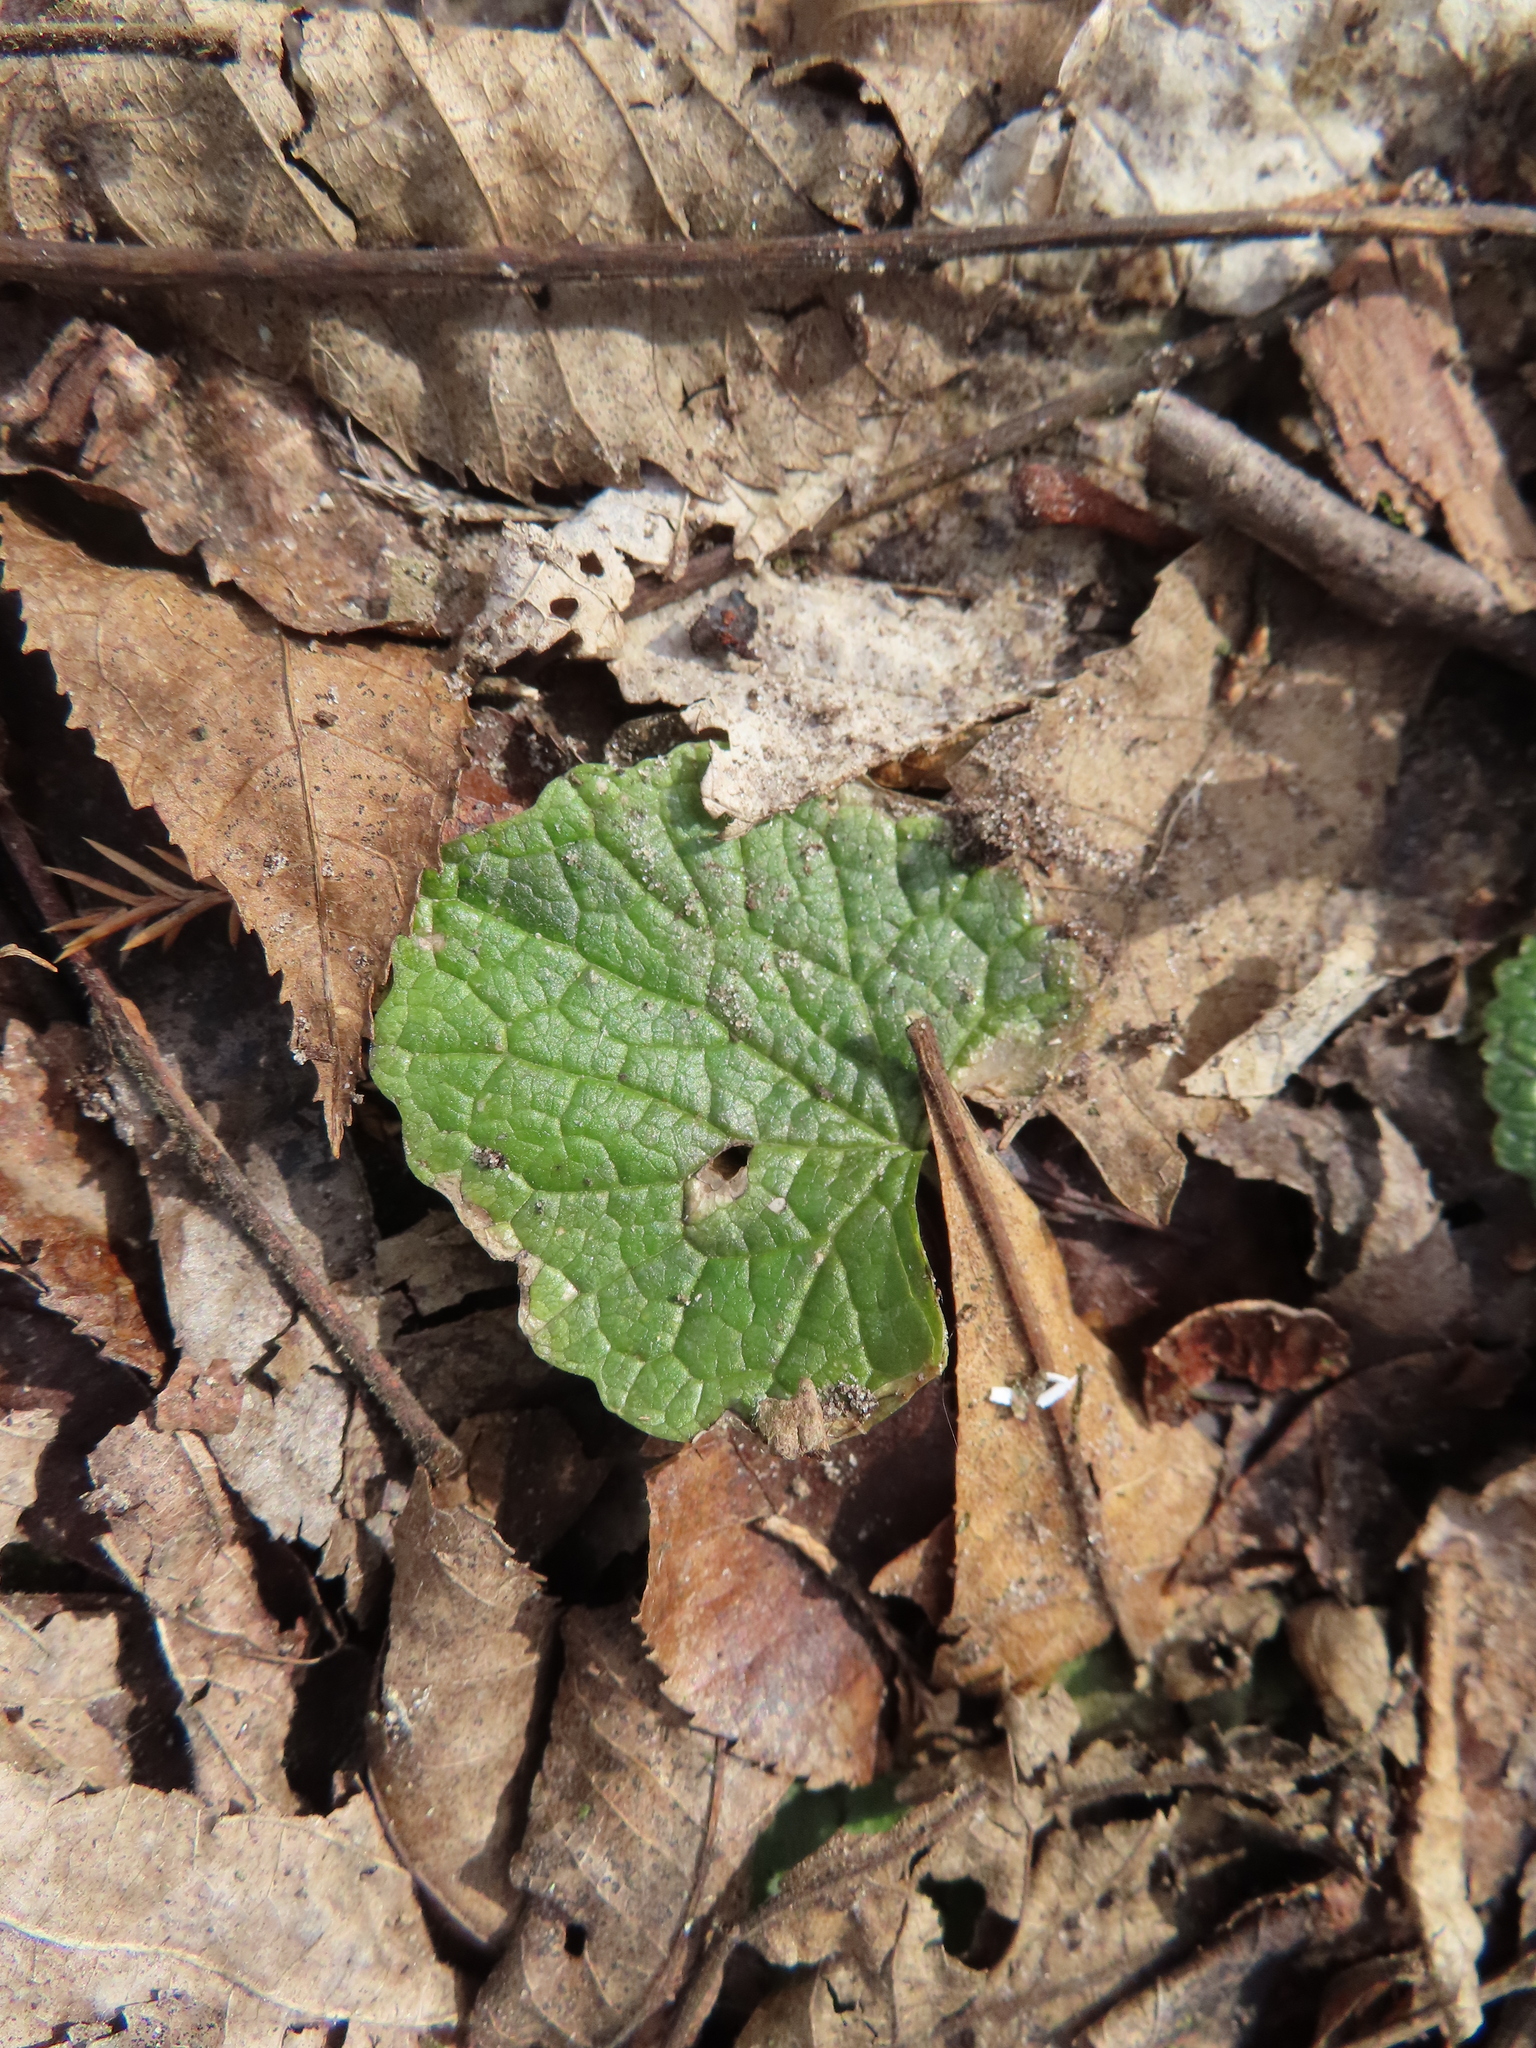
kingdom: Plantae
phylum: Tracheophyta
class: Magnoliopsida
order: Brassicales
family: Brassicaceae
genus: Alliaria
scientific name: Alliaria petiolata
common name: Garlic mustard
